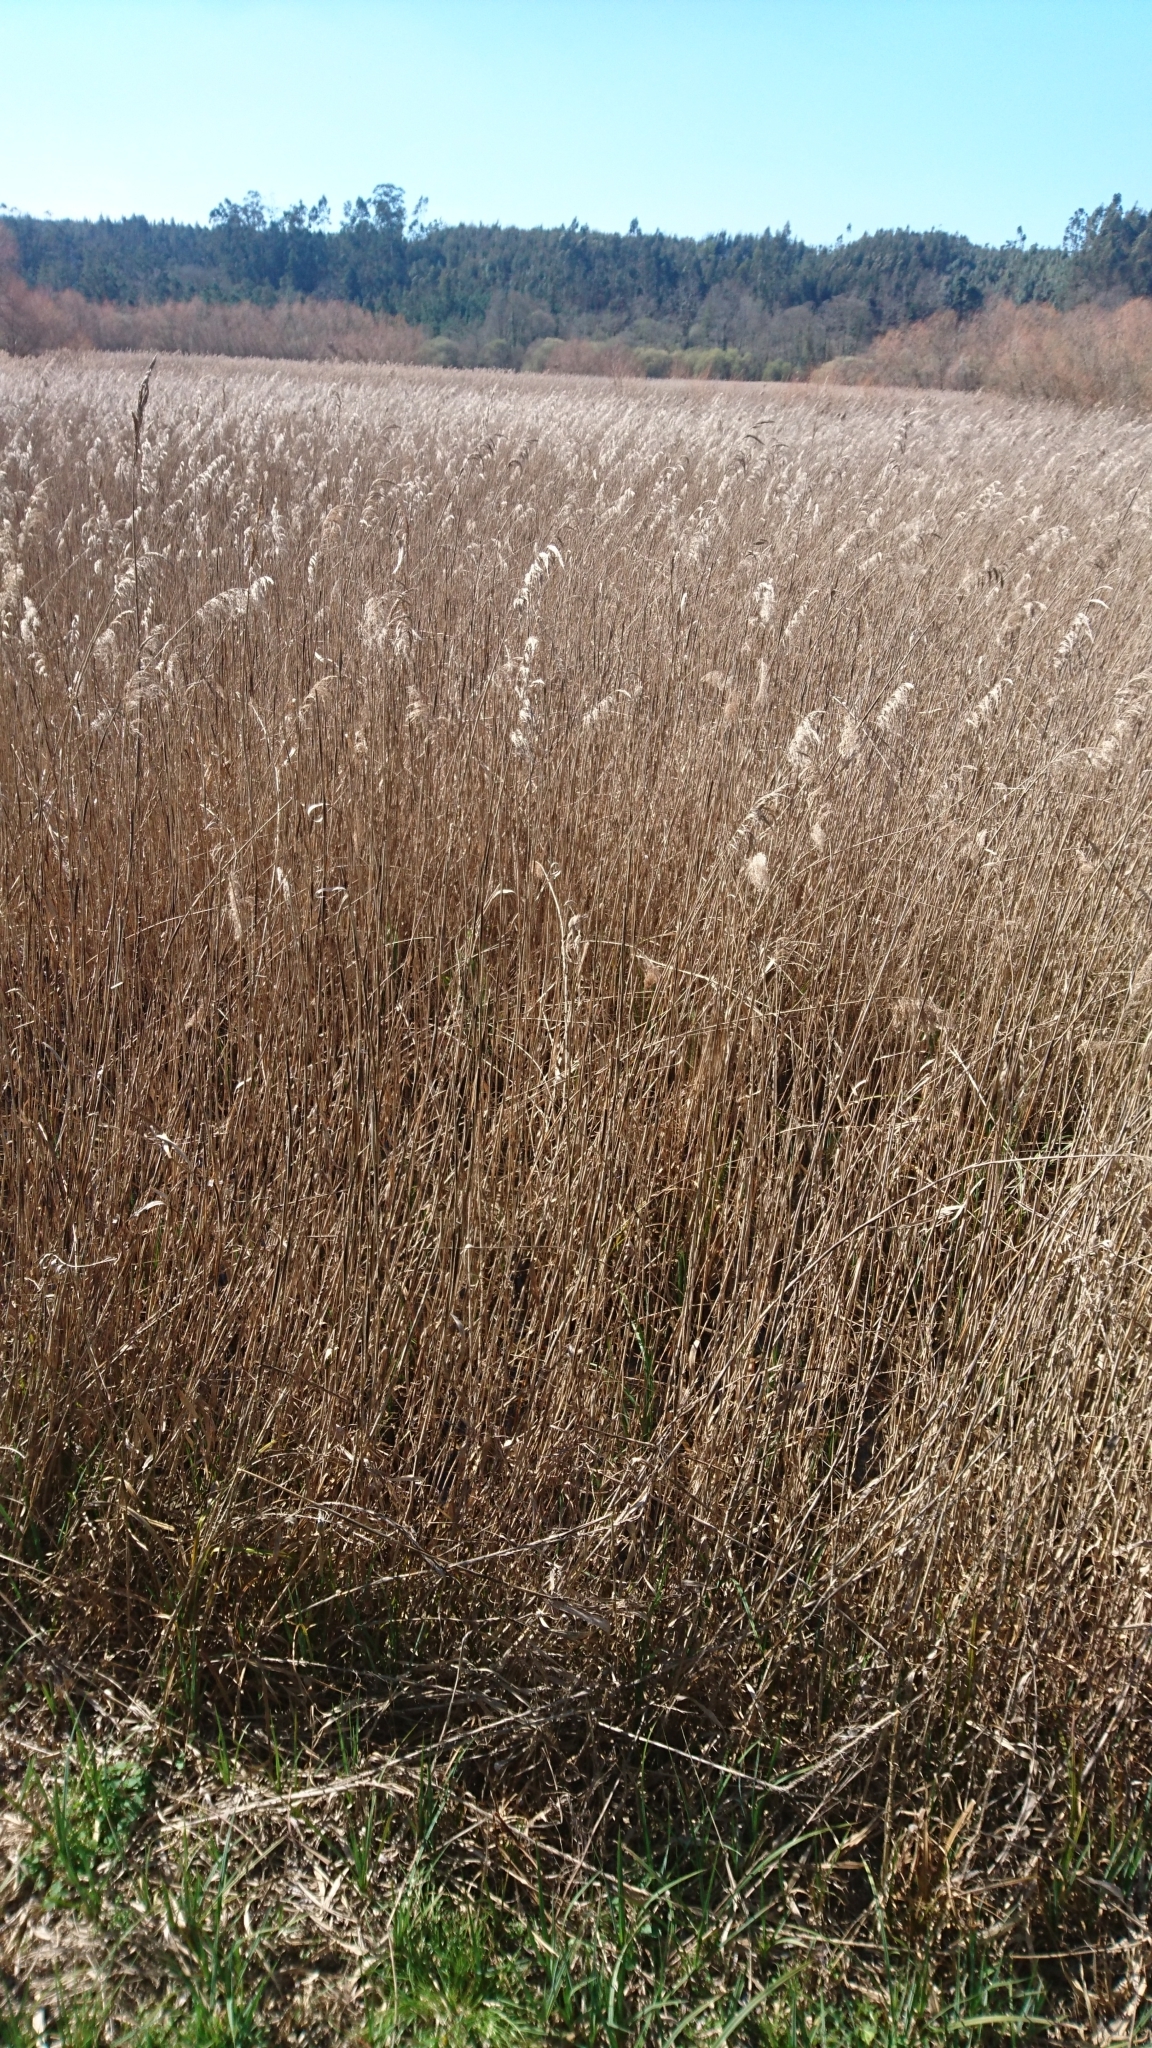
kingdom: Plantae
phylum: Tracheophyta
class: Liliopsida
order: Poales
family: Poaceae
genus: Phragmites
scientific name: Phragmites australis
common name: Common reed
